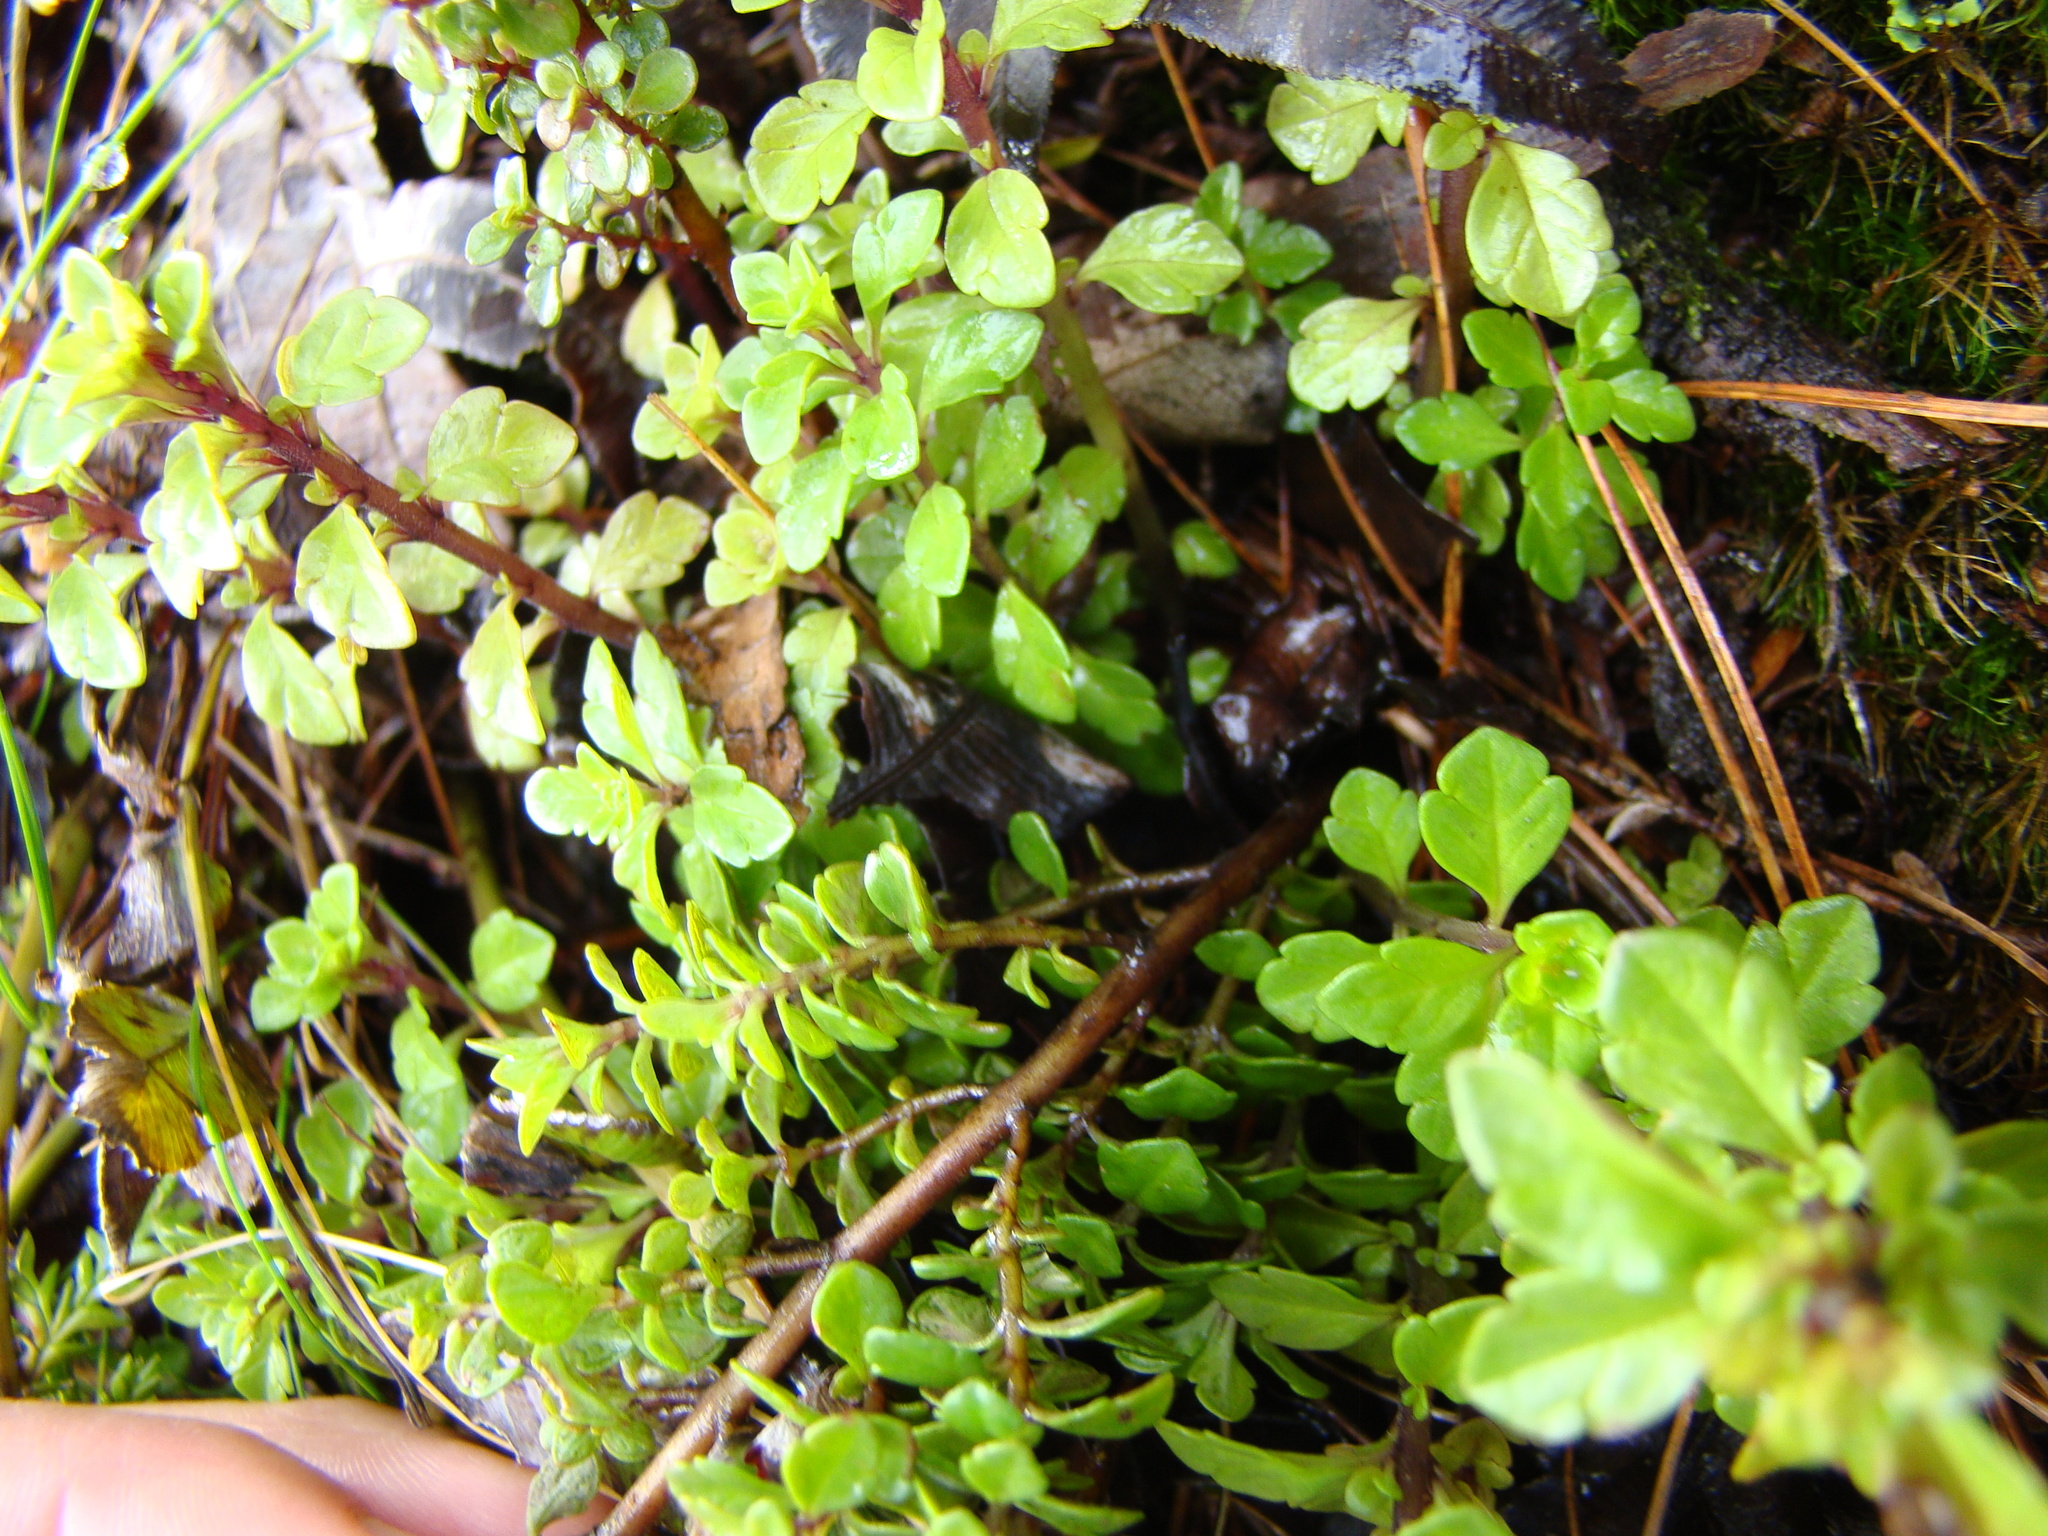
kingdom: Plantae
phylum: Tracheophyta
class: Magnoliopsida
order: Lamiales
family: Orobanchaceae
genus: Euphrasia
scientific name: Euphrasia cuneata
